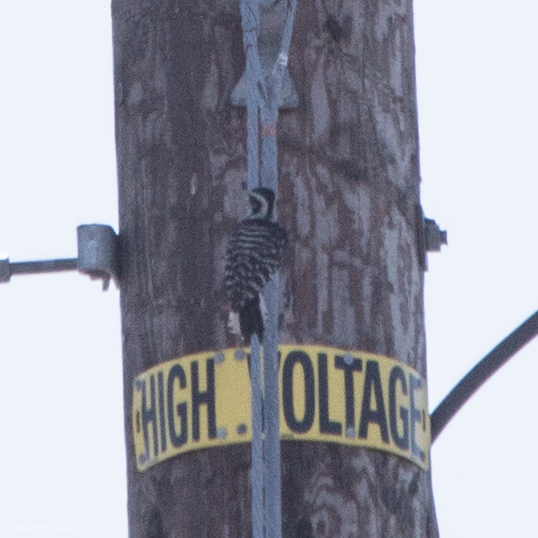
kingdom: Animalia
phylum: Chordata
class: Aves
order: Piciformes
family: Picidae
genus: Dryobates
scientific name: Dryobates nuttallii
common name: Nuttall's woodpecker
